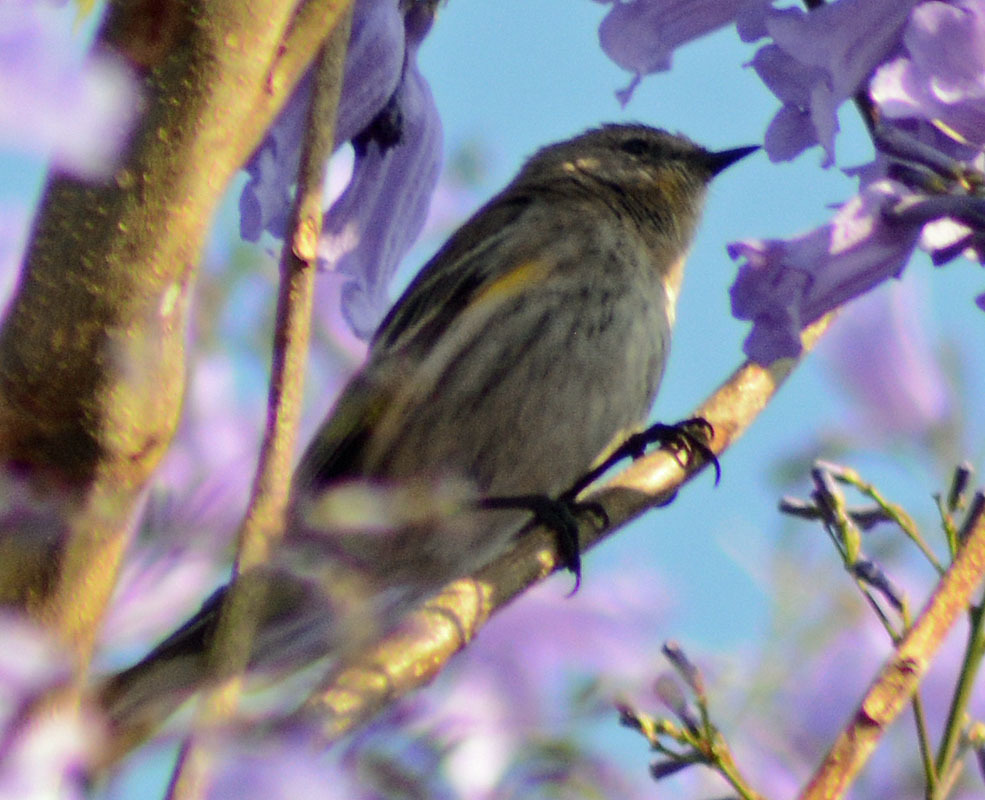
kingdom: Animalia
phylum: Chordata
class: Aves
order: Passeriformes
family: Parulidae
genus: Setophaga
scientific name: Setophaga coronata
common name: Myrtle warbler
